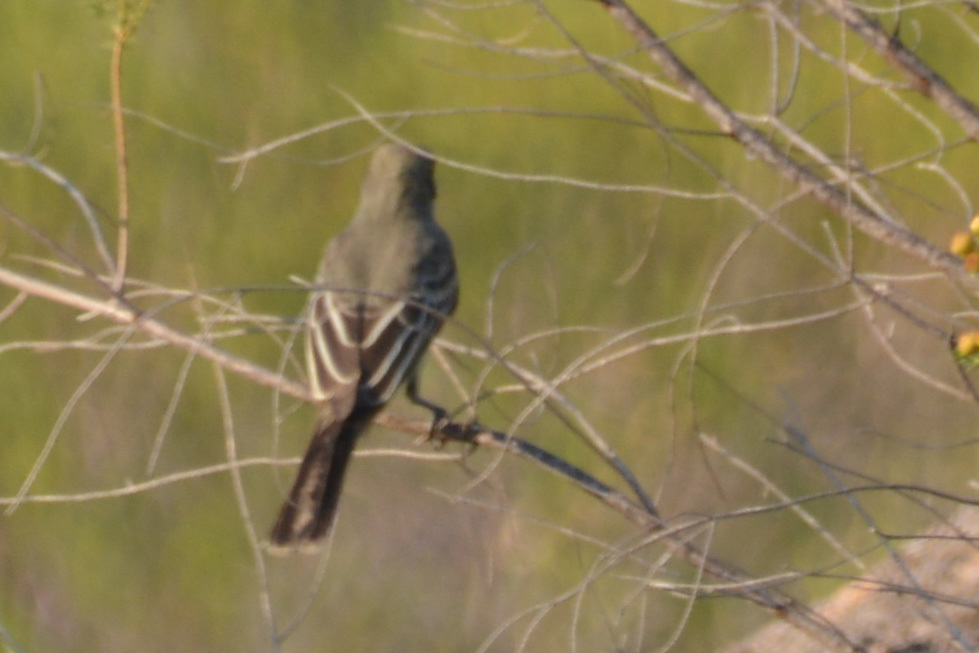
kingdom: Animalia
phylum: Chordata
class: Aves
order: Passeriformes
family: Tyrannidae
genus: Myiarchus
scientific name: Myiarchus swainsoni
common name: Swainson's flycatcher
